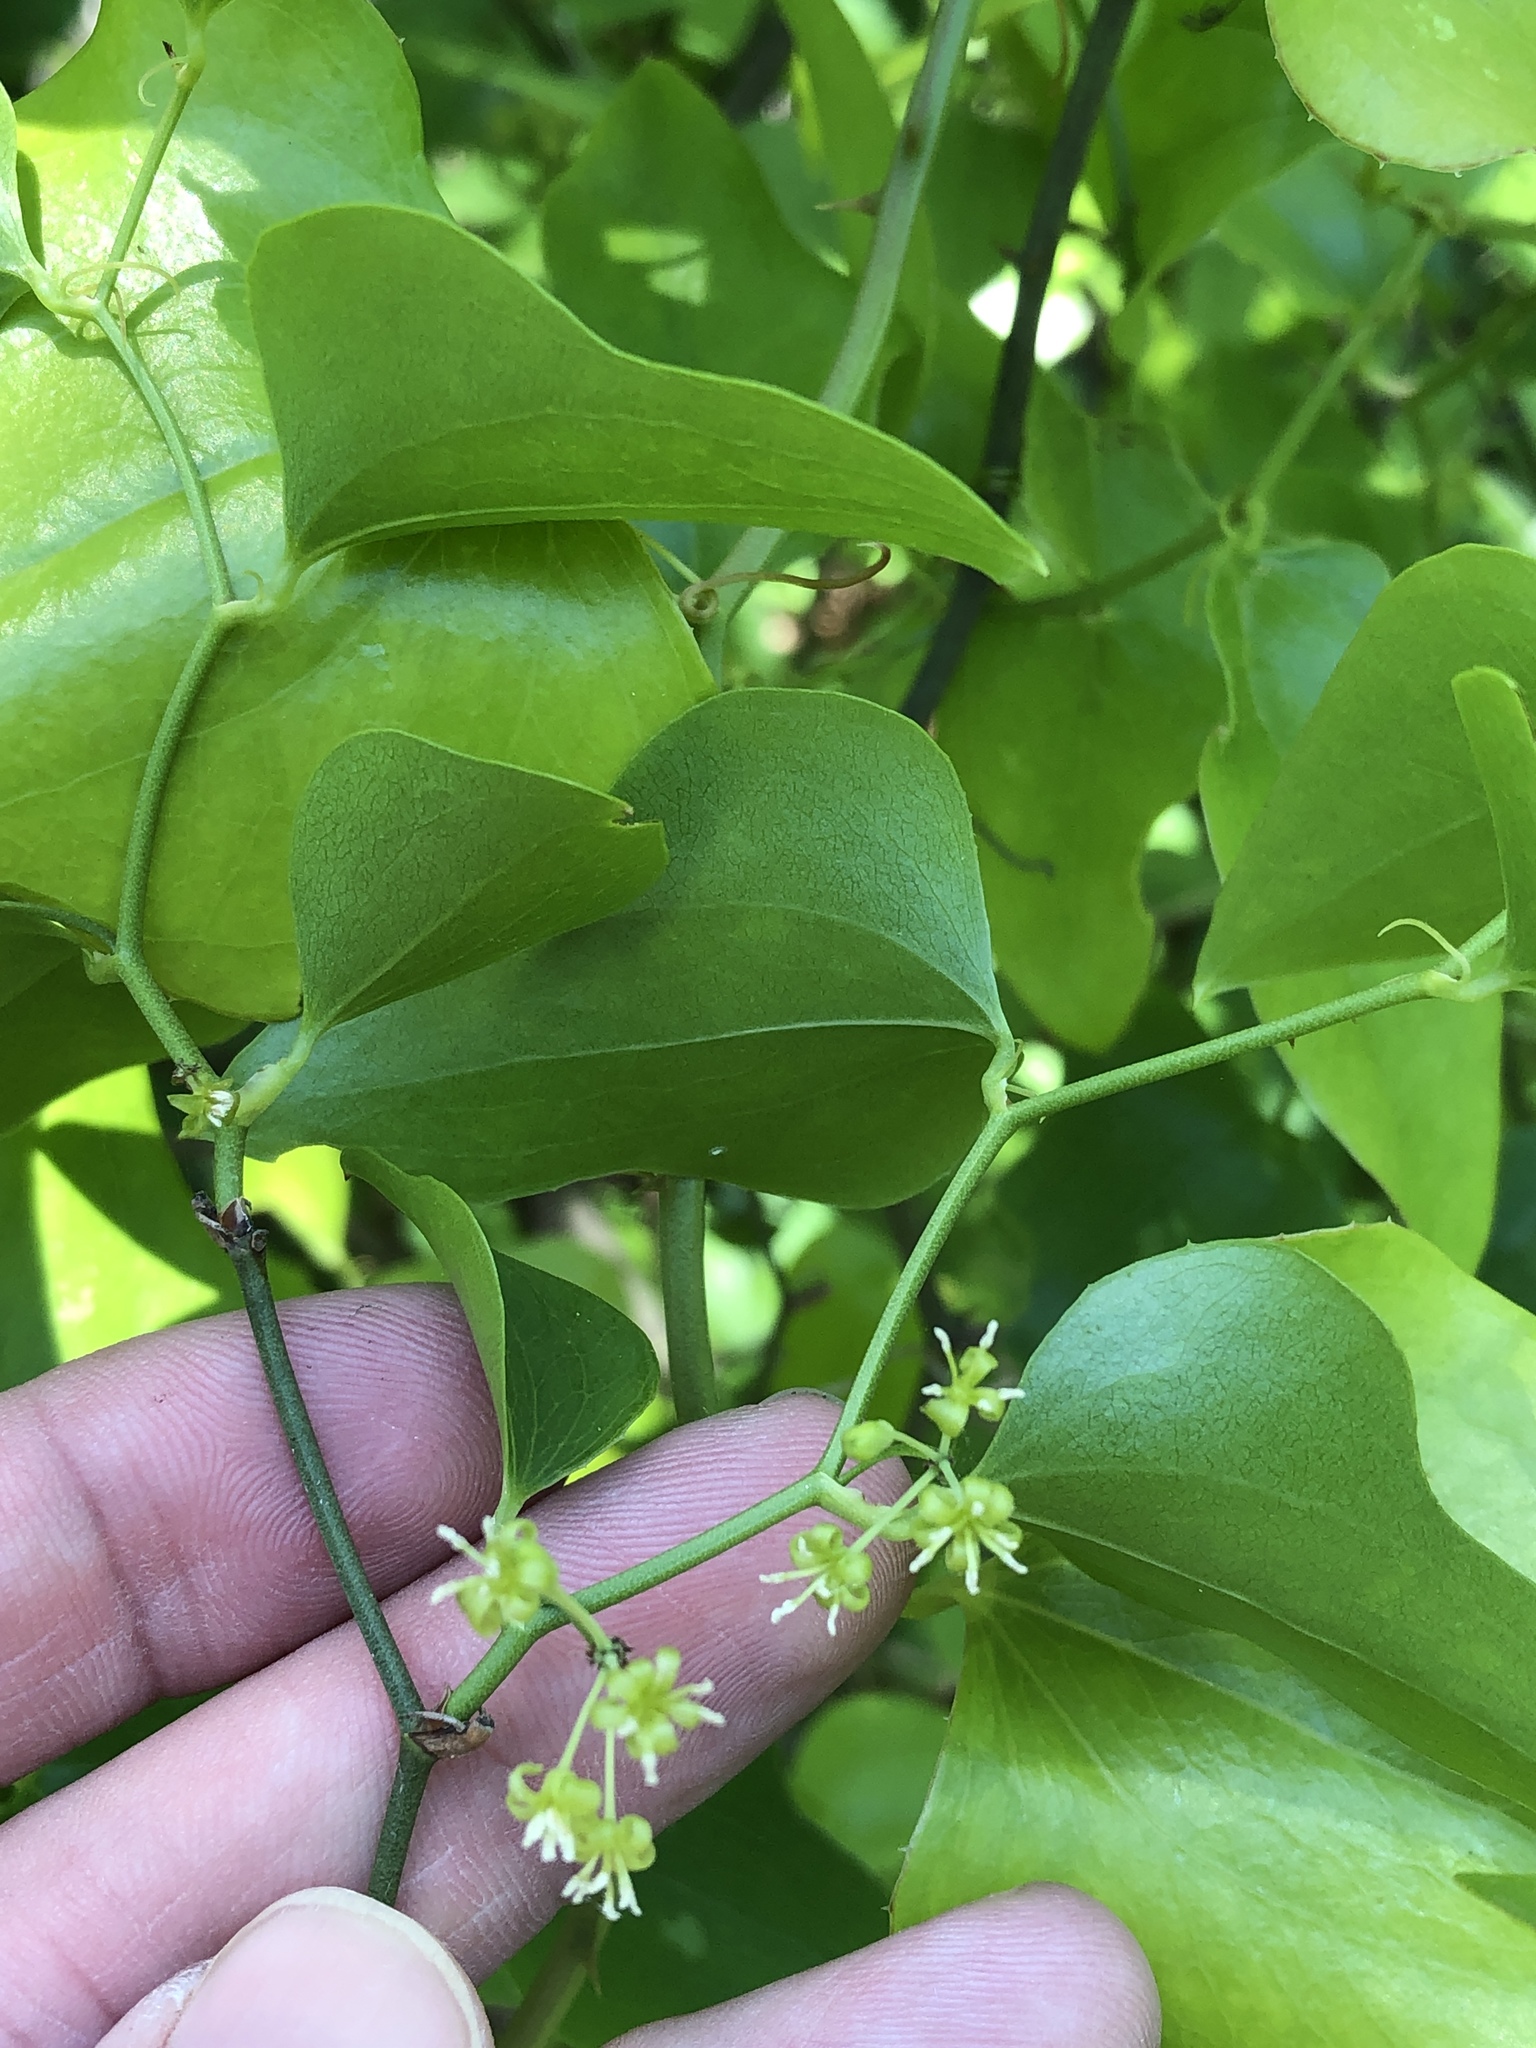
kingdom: Plantae
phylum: Tracheophyta
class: Liliopsida
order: Liliales
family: Smilacaceae
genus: Smilax
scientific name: Smilax bona-nox
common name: Catbrier
